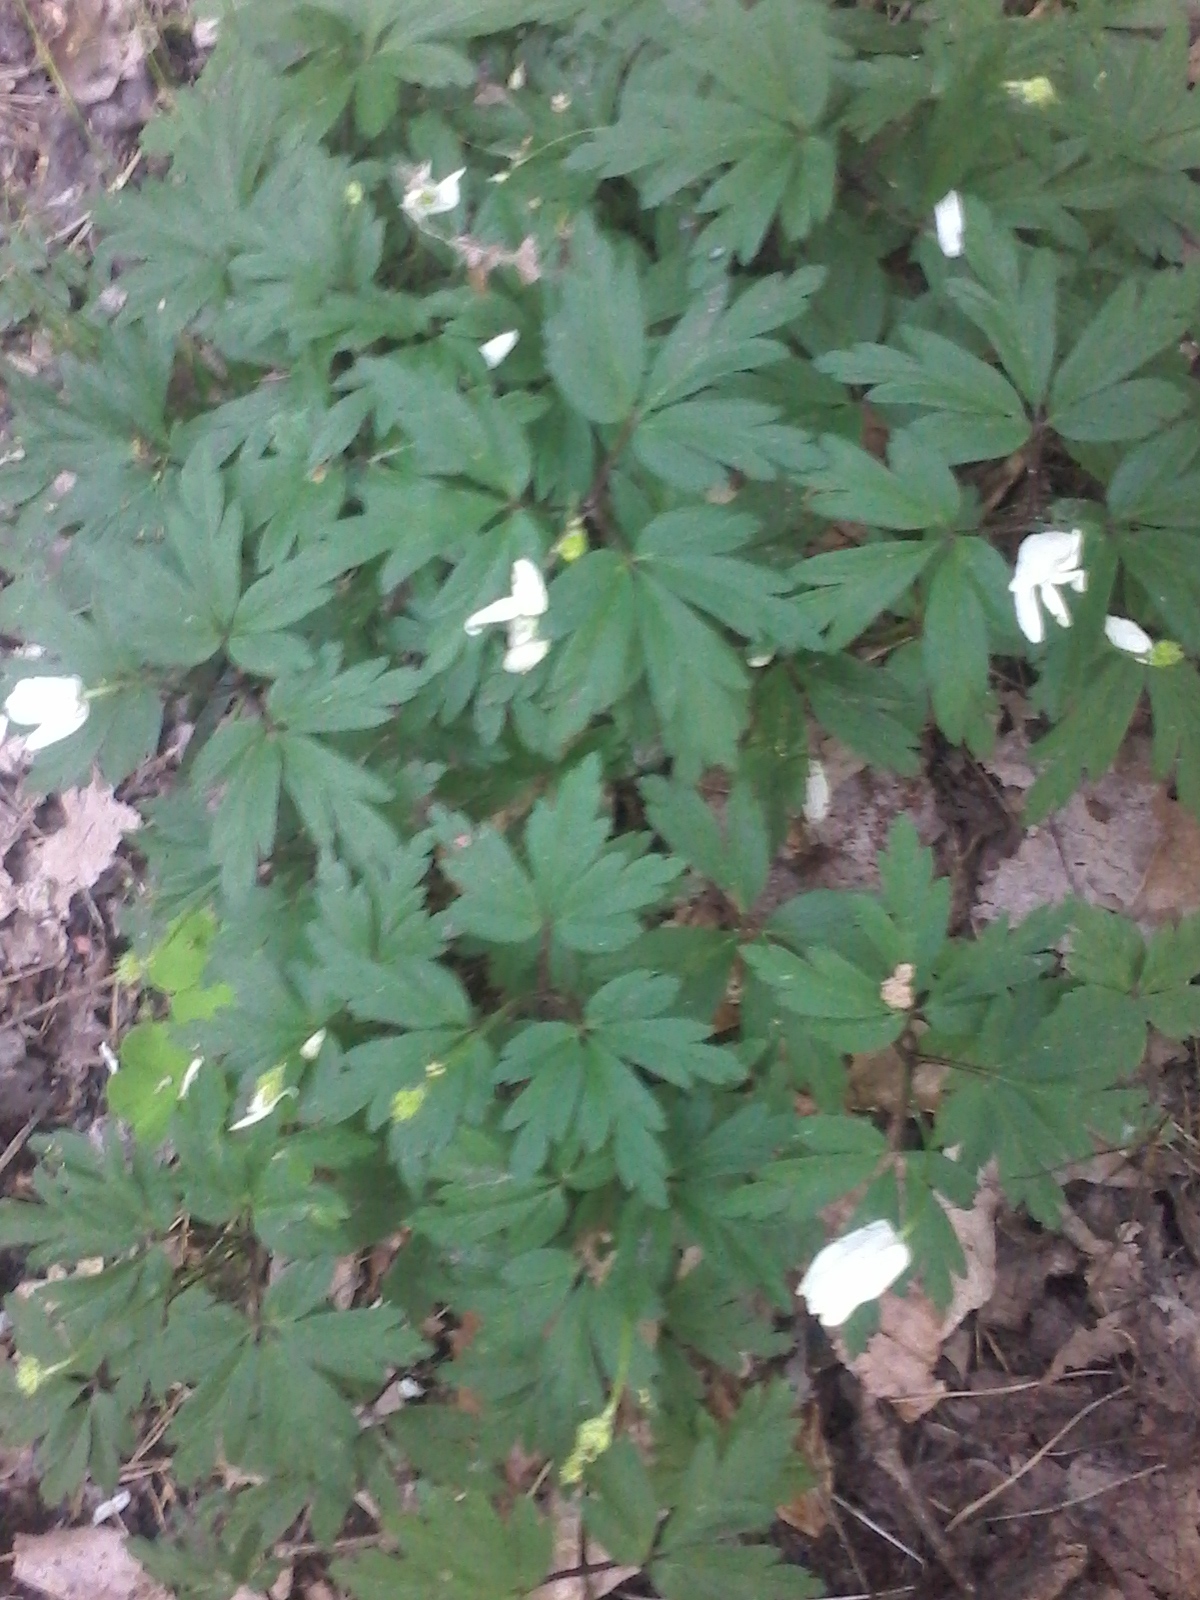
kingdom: Plantae
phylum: Tracheophyta
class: Magnoliopsida
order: Ranunculales
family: Ranunculaceae
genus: Anemone
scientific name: Anemone nemorosa
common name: Wood anemone
